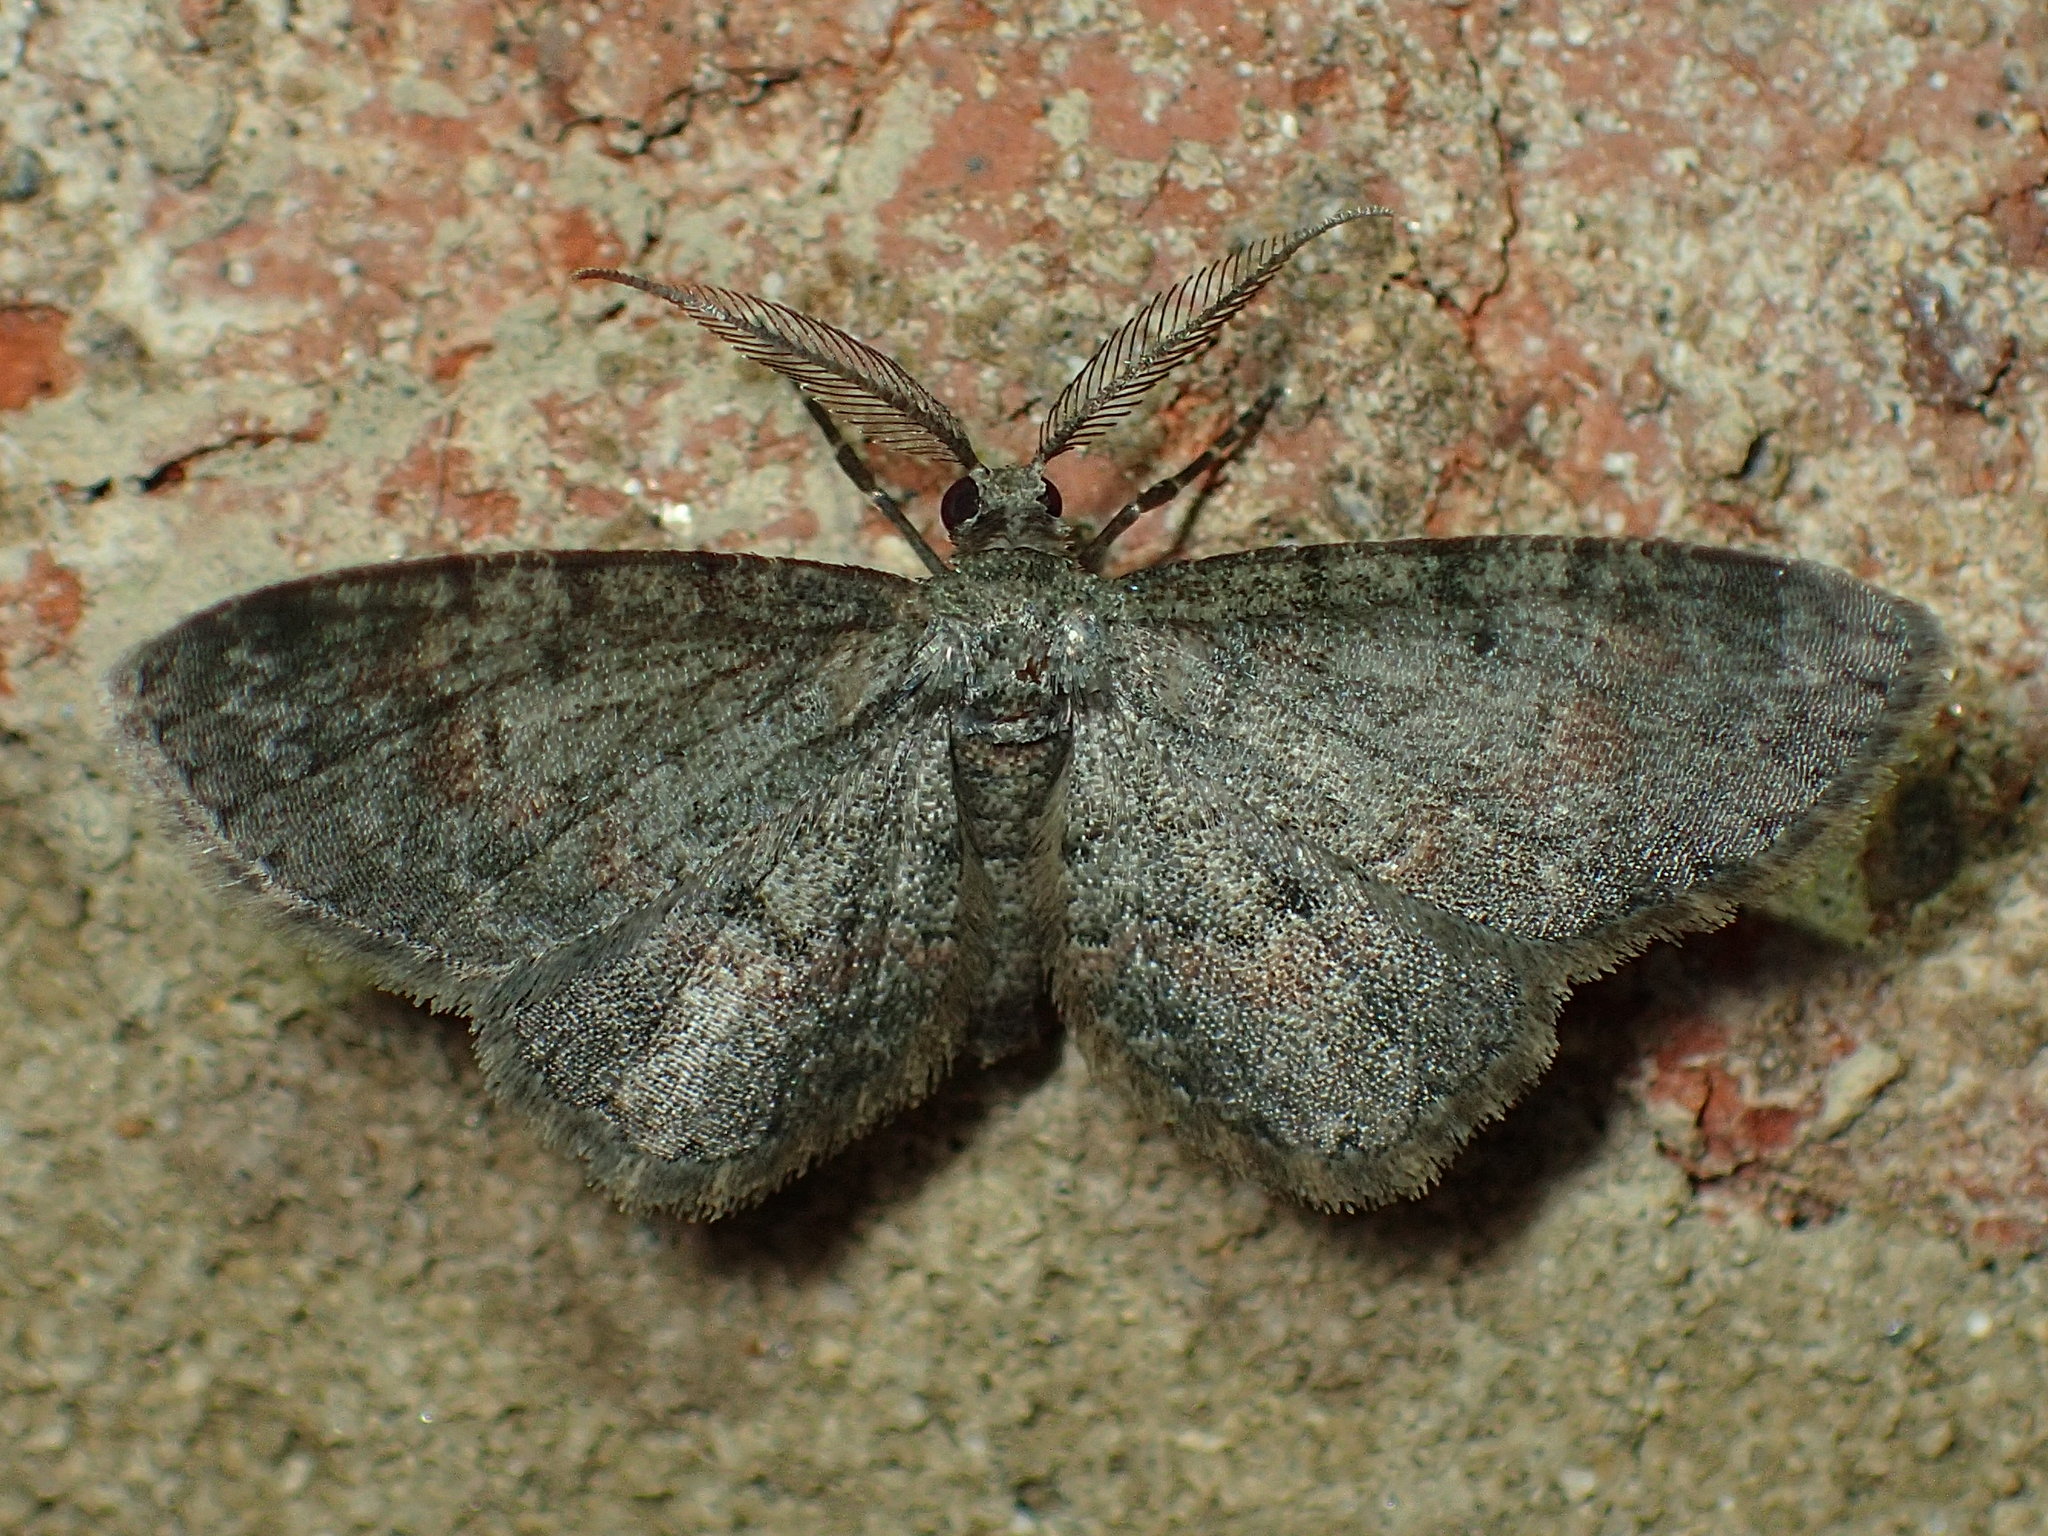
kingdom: Animalia
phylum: Arthropoda
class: Insecta
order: Lepidoptera
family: Geometridae
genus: Glenoides
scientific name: Glenoides texanaria
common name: Texas gray
